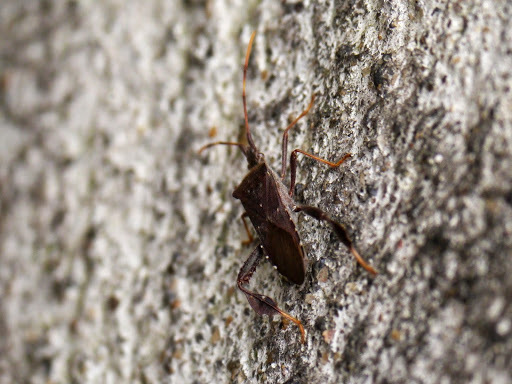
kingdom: Animalia
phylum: Arthropoda
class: Insecta
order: Hemiptera
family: Coreidae
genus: Leptoglossus
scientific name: Leptoglossus oppositus
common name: Northern leaf-footed bug
